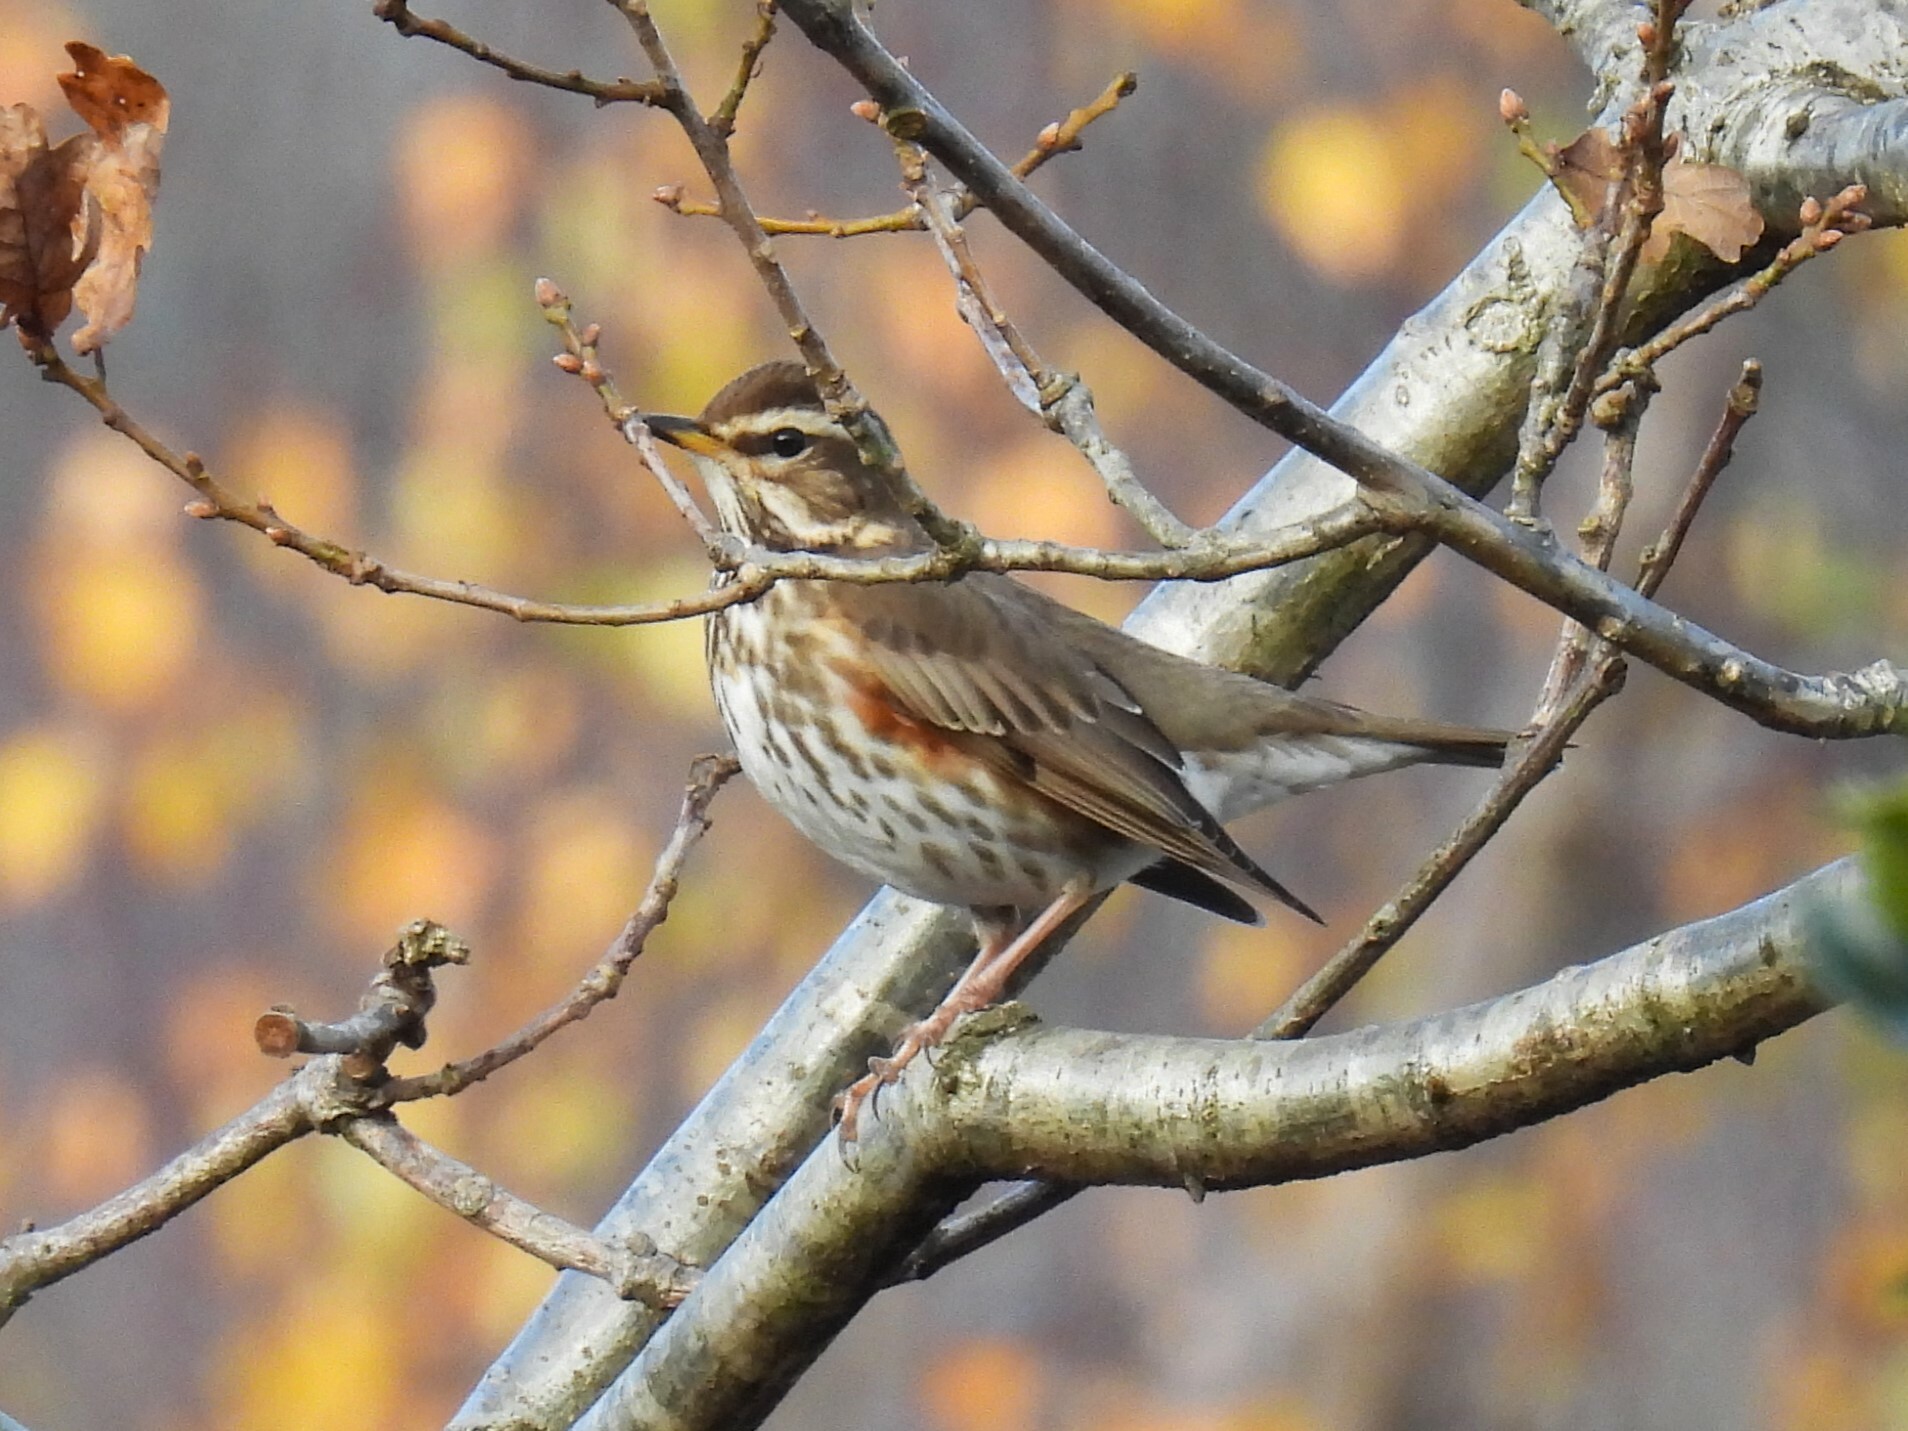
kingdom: Animalia
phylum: Chordata
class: Aves
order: Passeriformes
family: Turdidae
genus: Turdus
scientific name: Turdus iliacus
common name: Redwing
